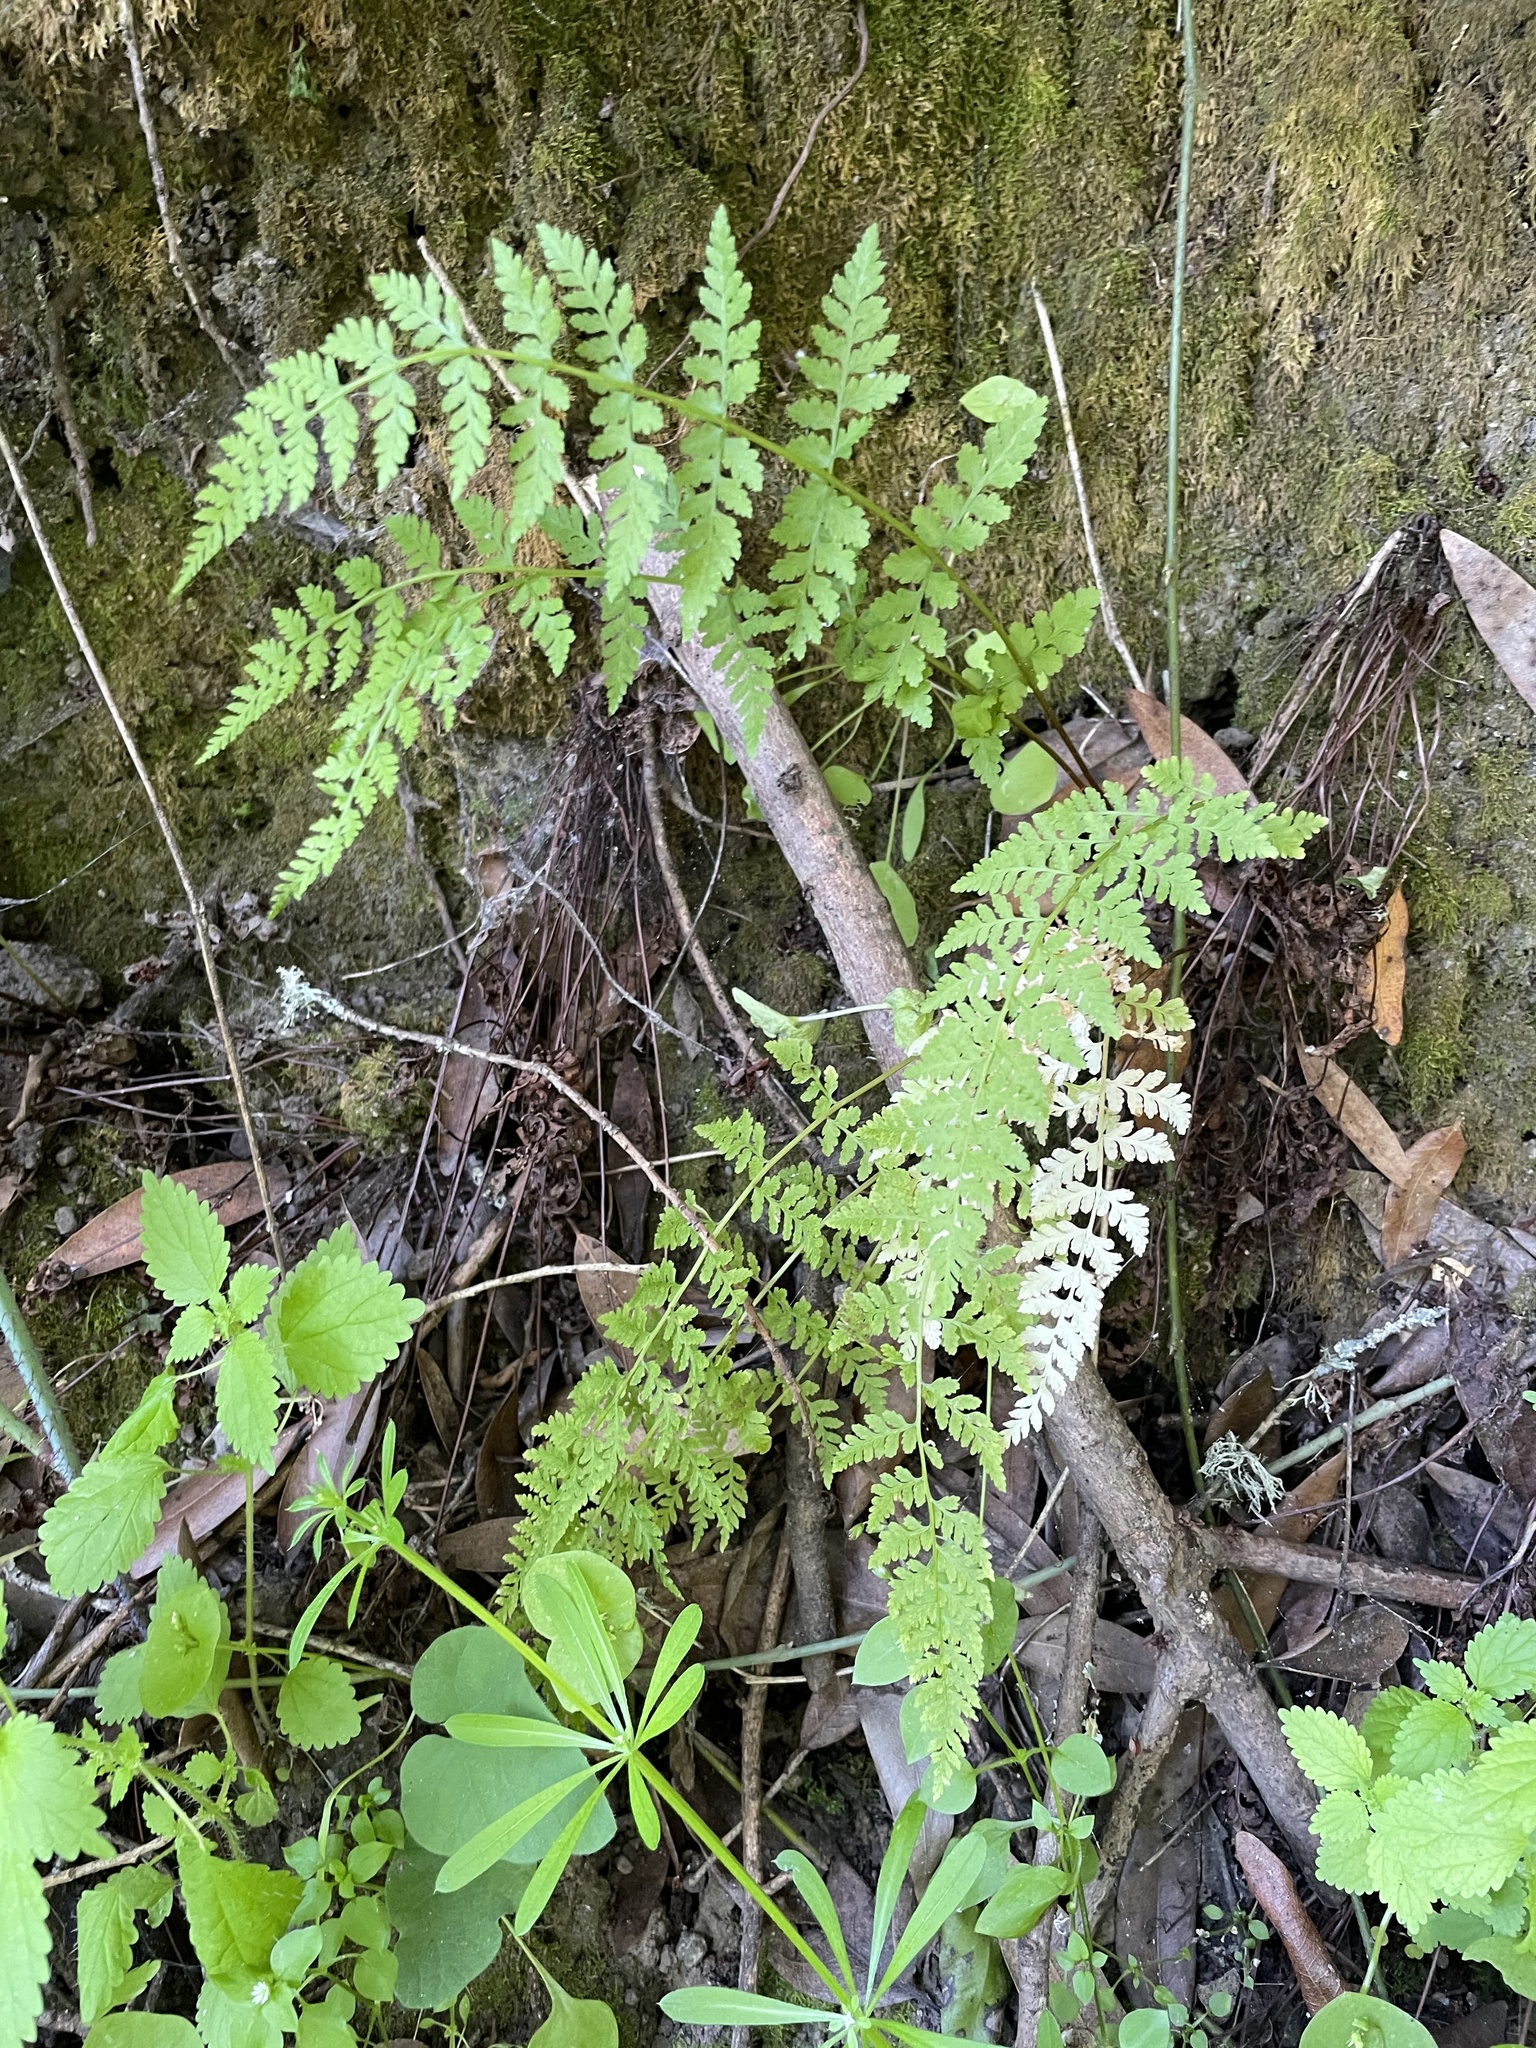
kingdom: Plantae
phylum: Tracheophyta
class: Polypodiopsida
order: Polypodiales
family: Cystopteridaceae
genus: Cystopteris
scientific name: Cystopteris fragilis
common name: Brittle bladder fern
